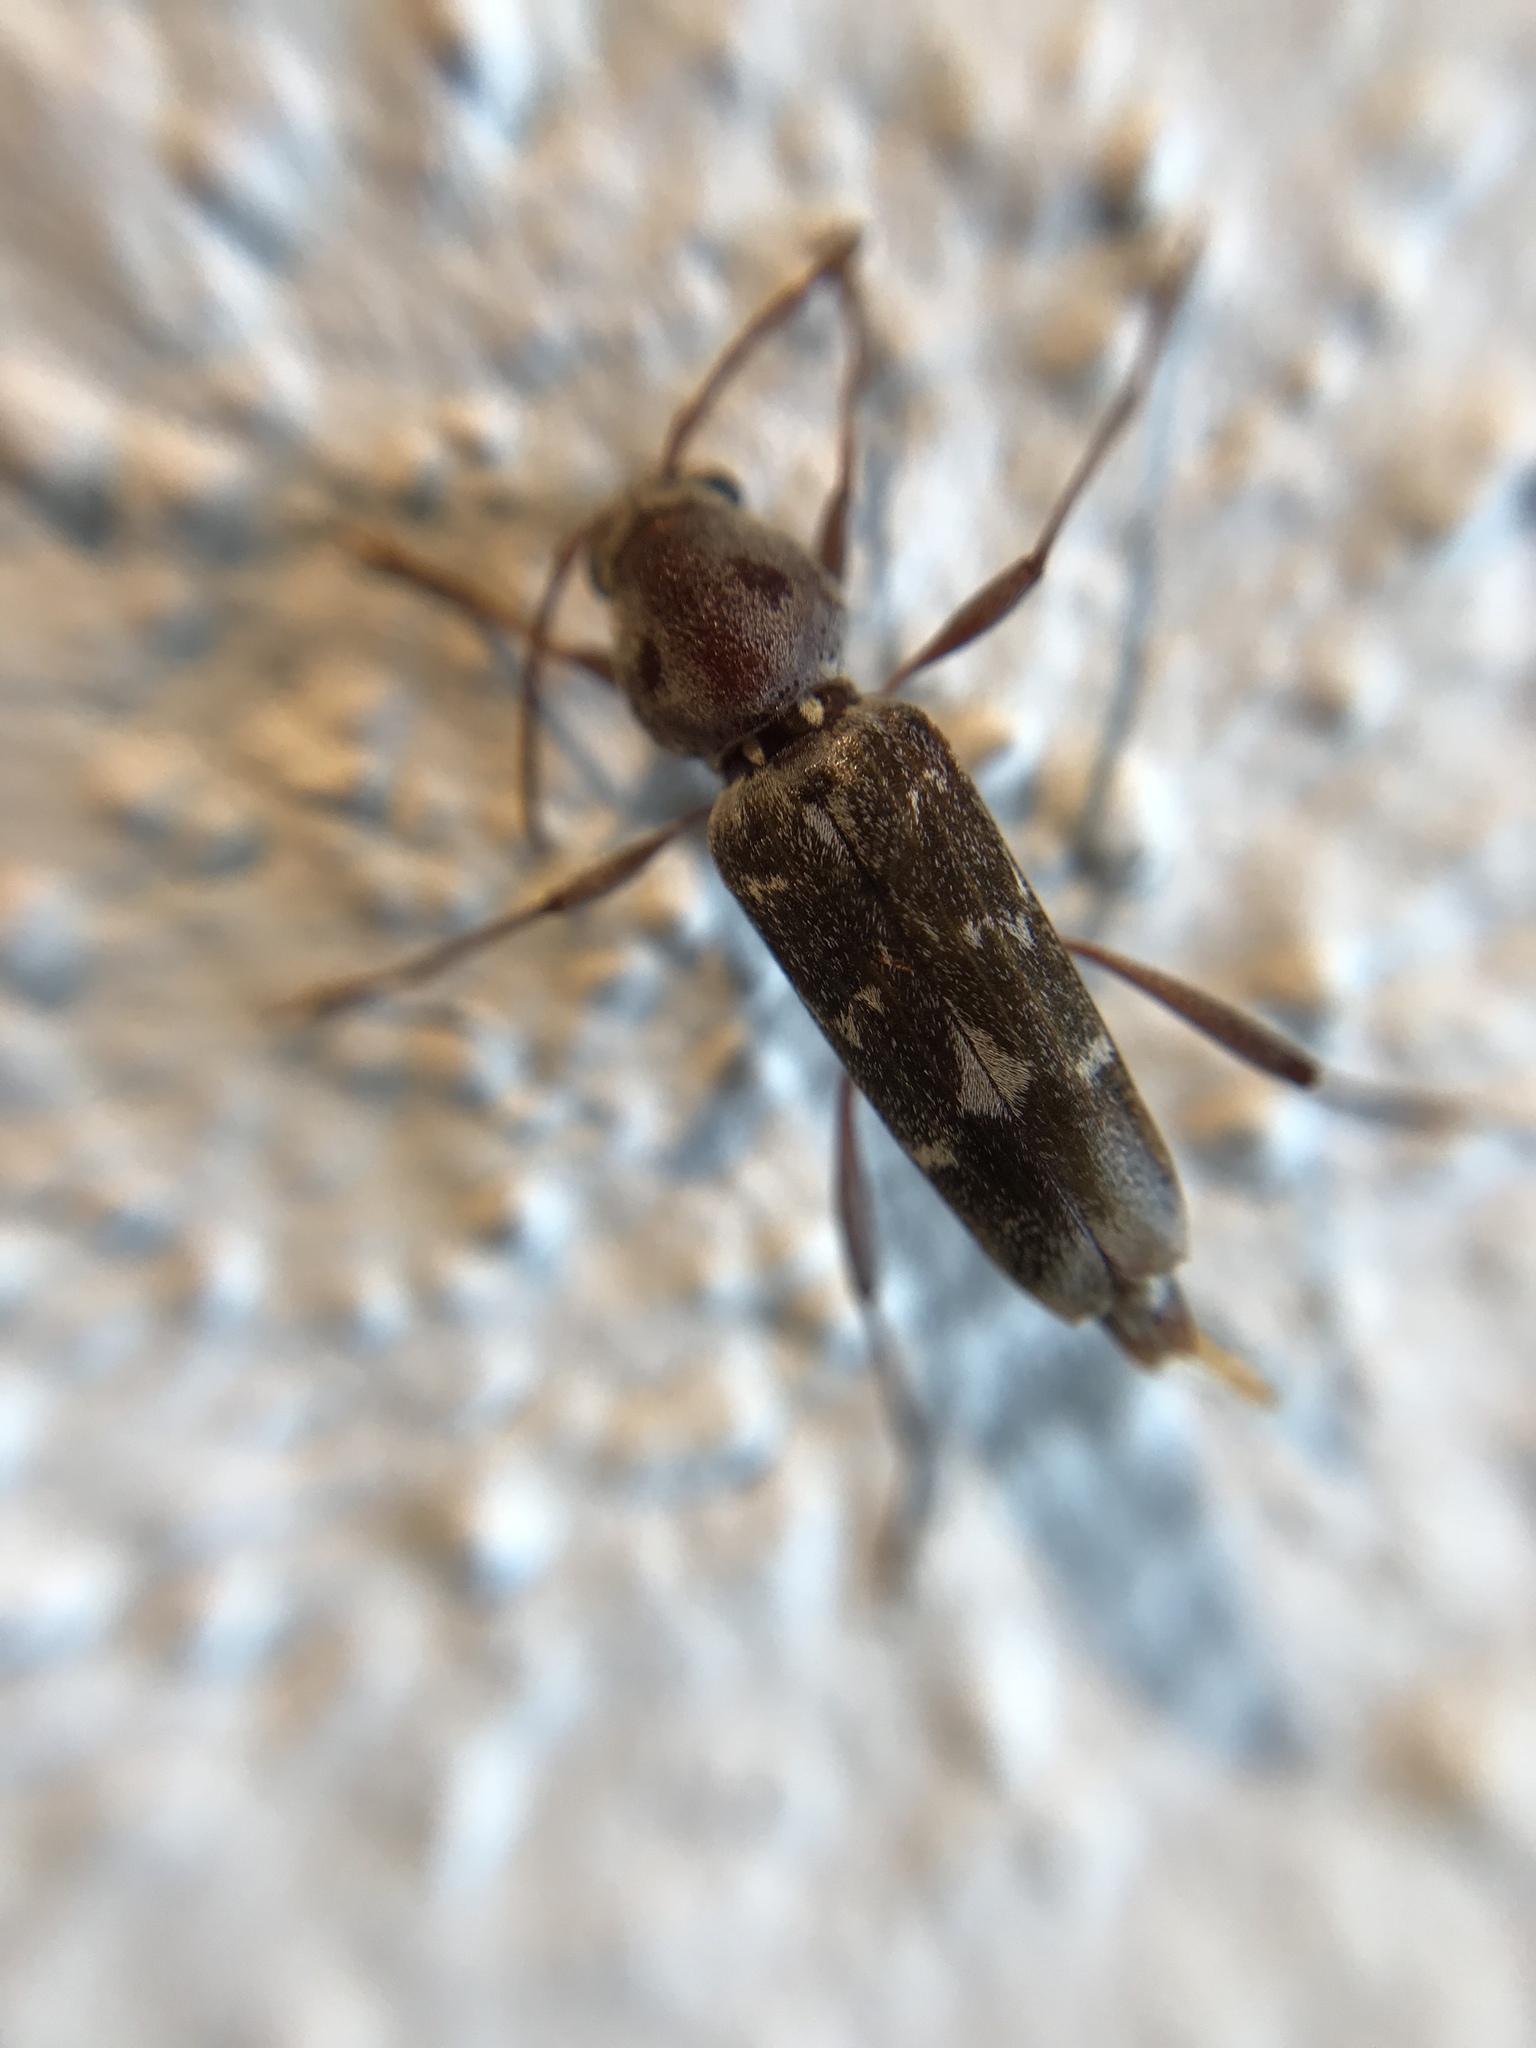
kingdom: Animalia
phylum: Arthropoda
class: Insecta
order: Coleoptera
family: Cerambycidae
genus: Xylotrechus
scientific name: Xylotrechus smei
